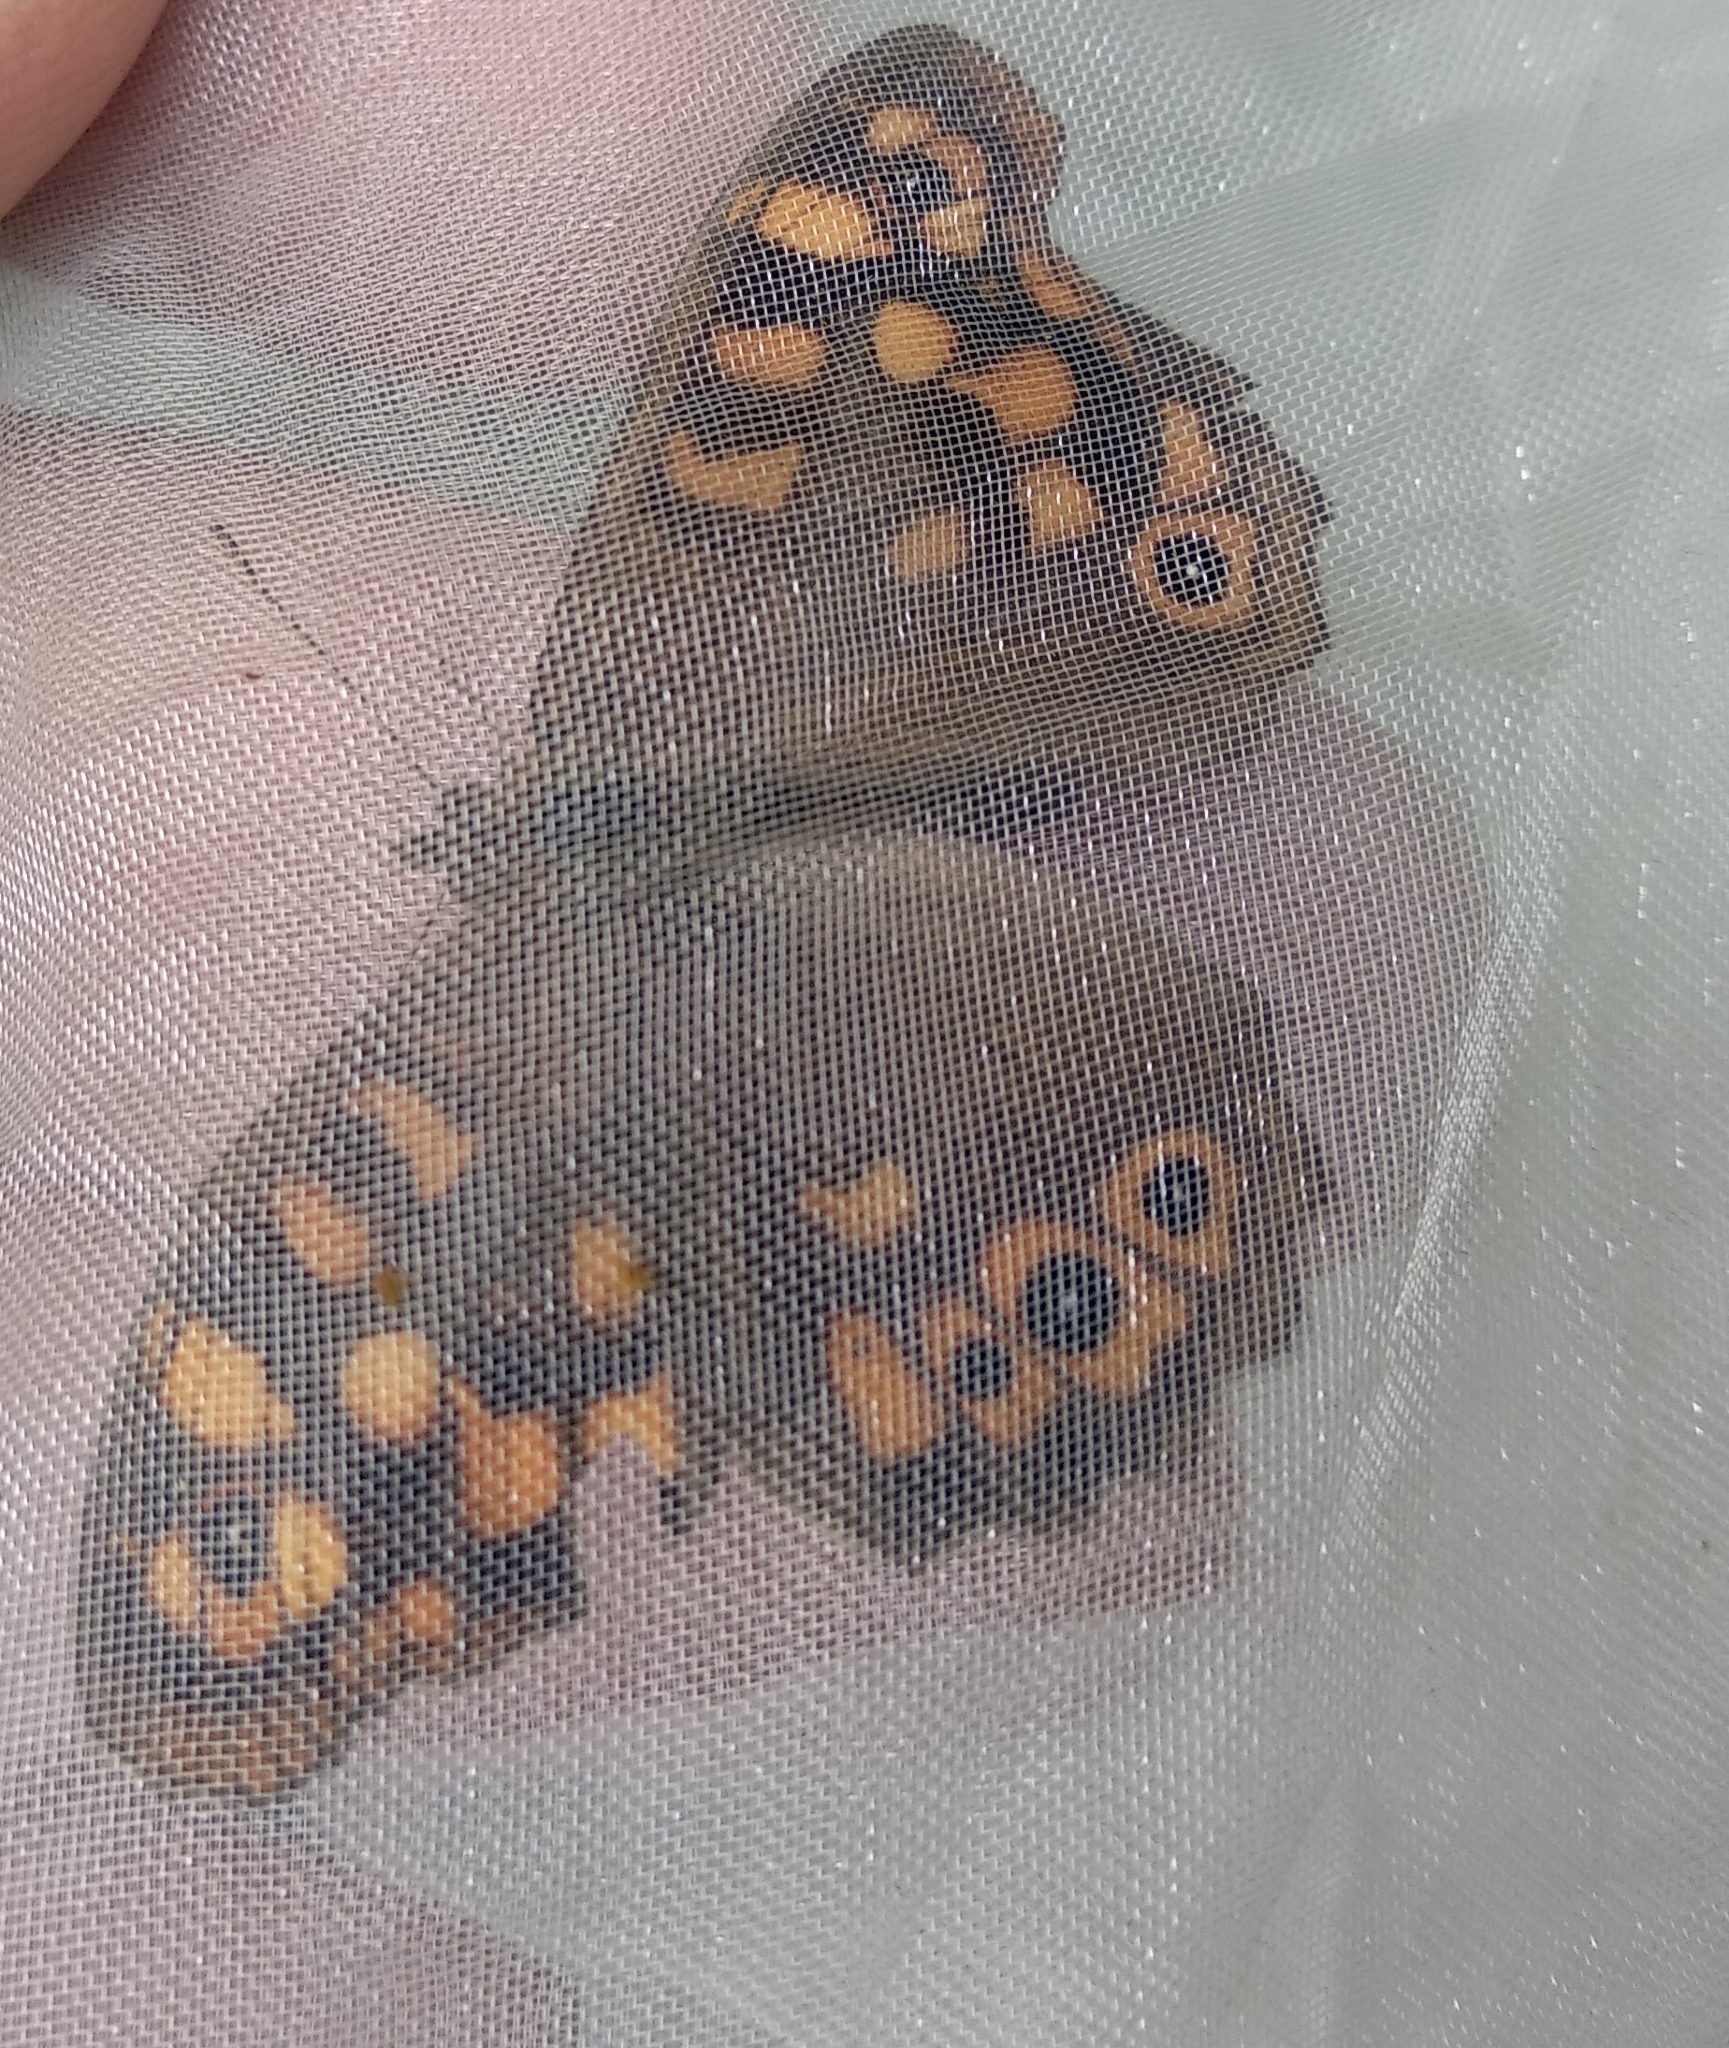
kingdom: Animalia
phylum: Arthropoda
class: Insecta
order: Lepidoptera
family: Nymphalidae
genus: Pararge
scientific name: Pararge aegeria
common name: Speckled wood
